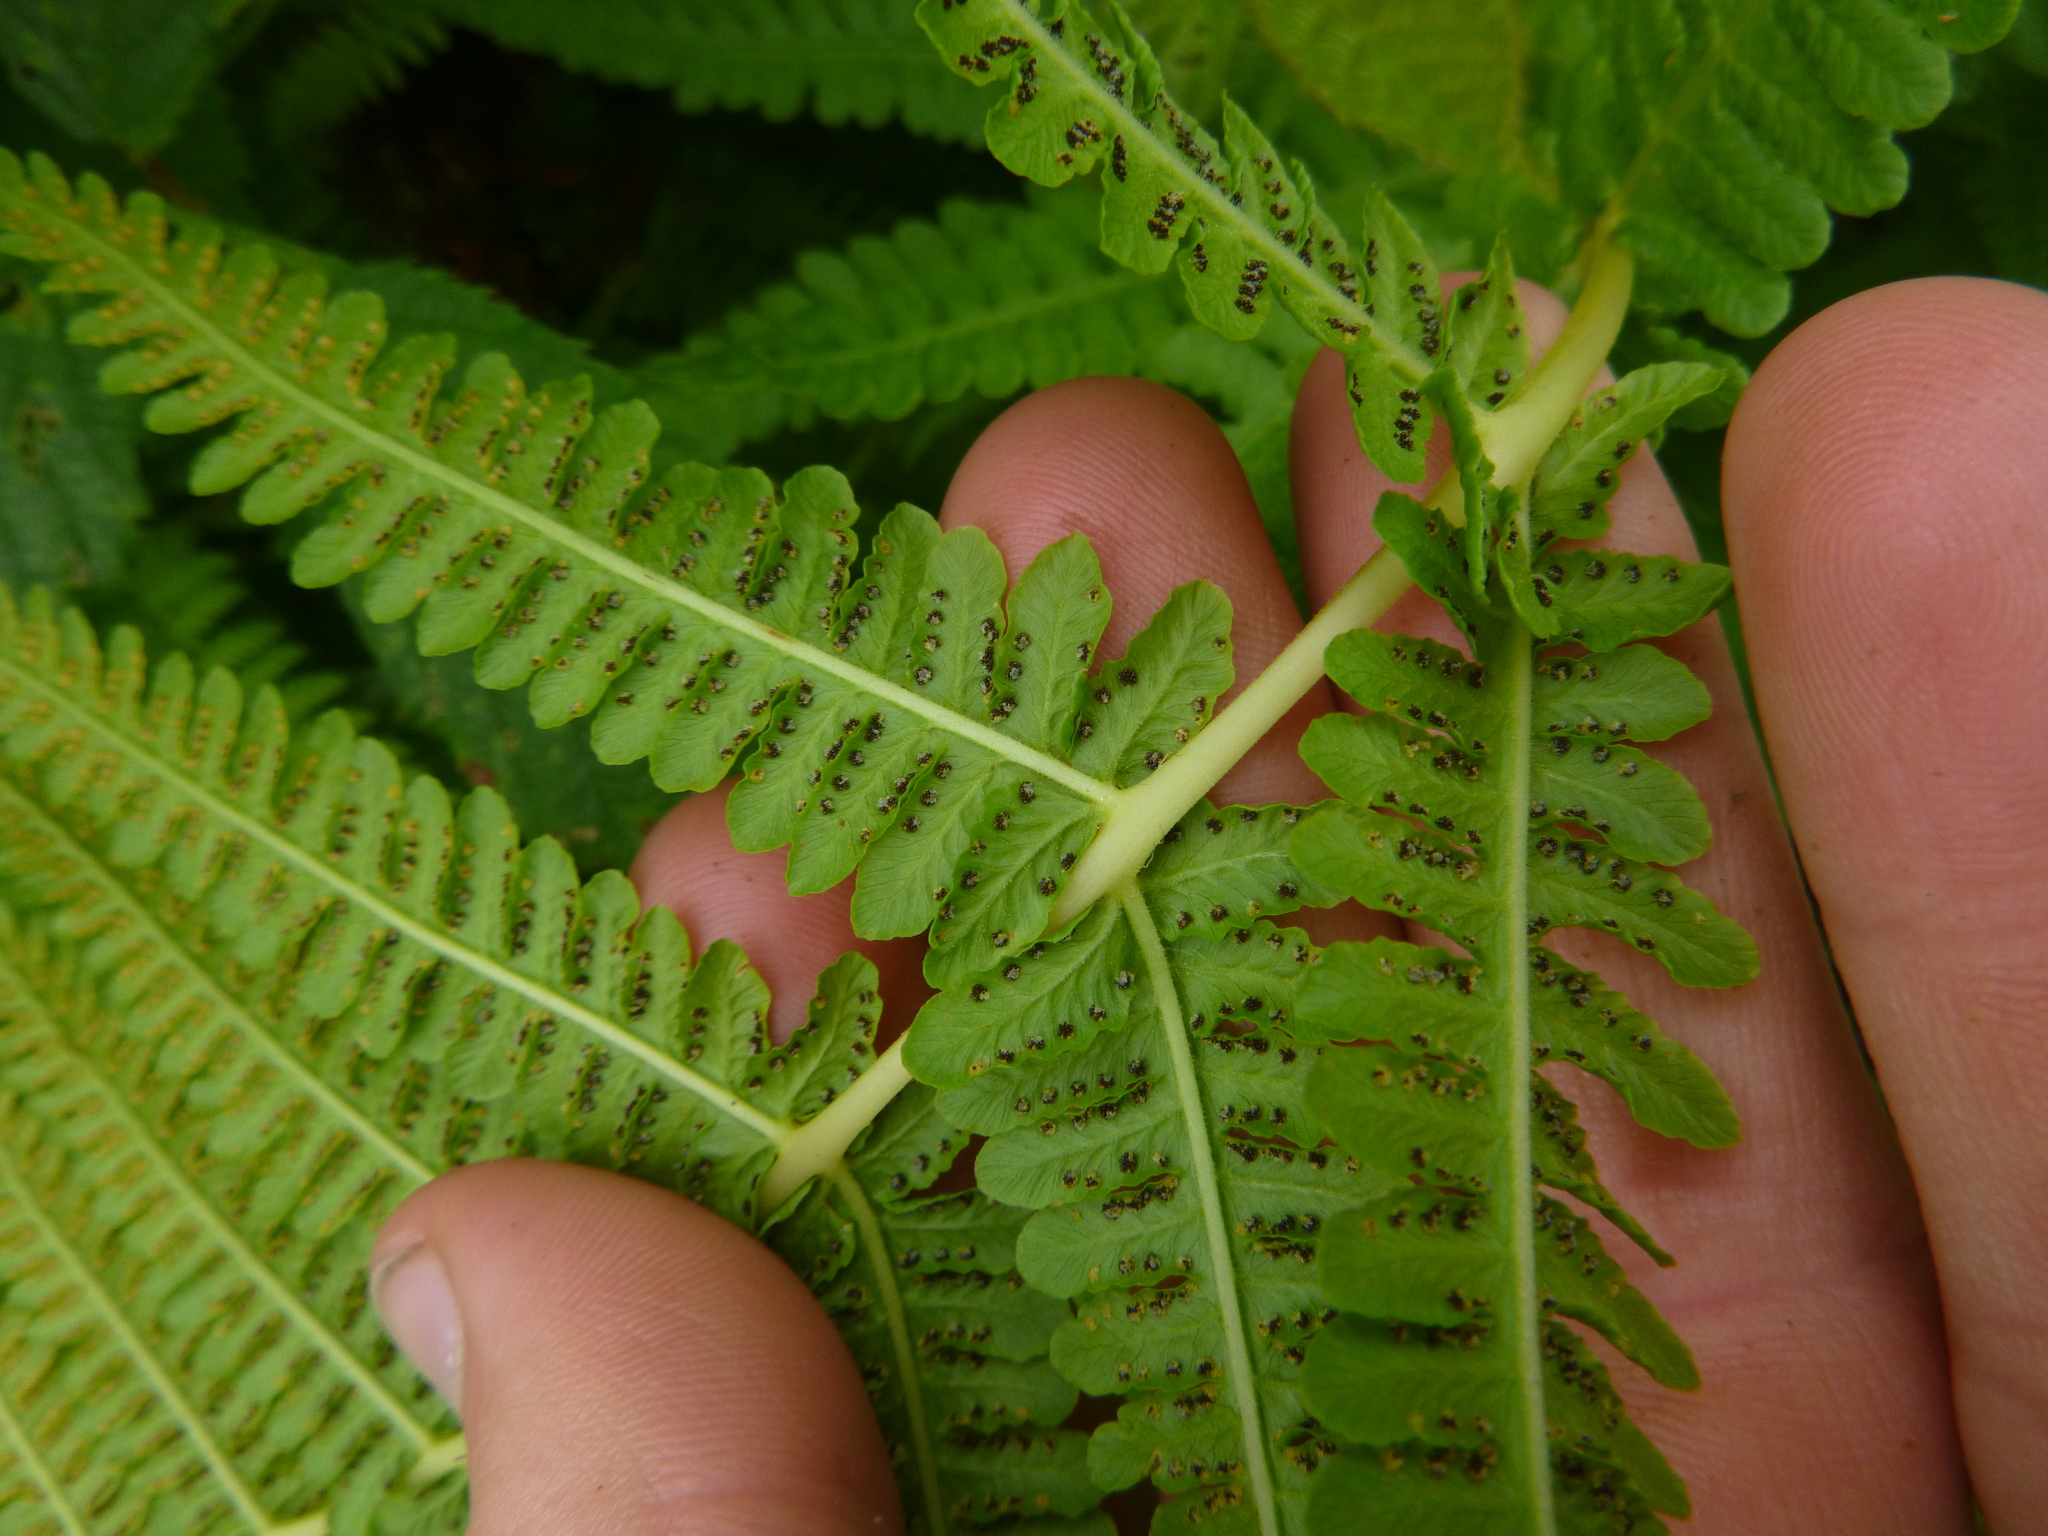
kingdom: Plantae
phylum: Tracheophyta
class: Polypodiopsida
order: Polypodiales
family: Thelypteridaceae
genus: Oreopteris
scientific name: Oreopteris limbosperma
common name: Lemon-scented fern
